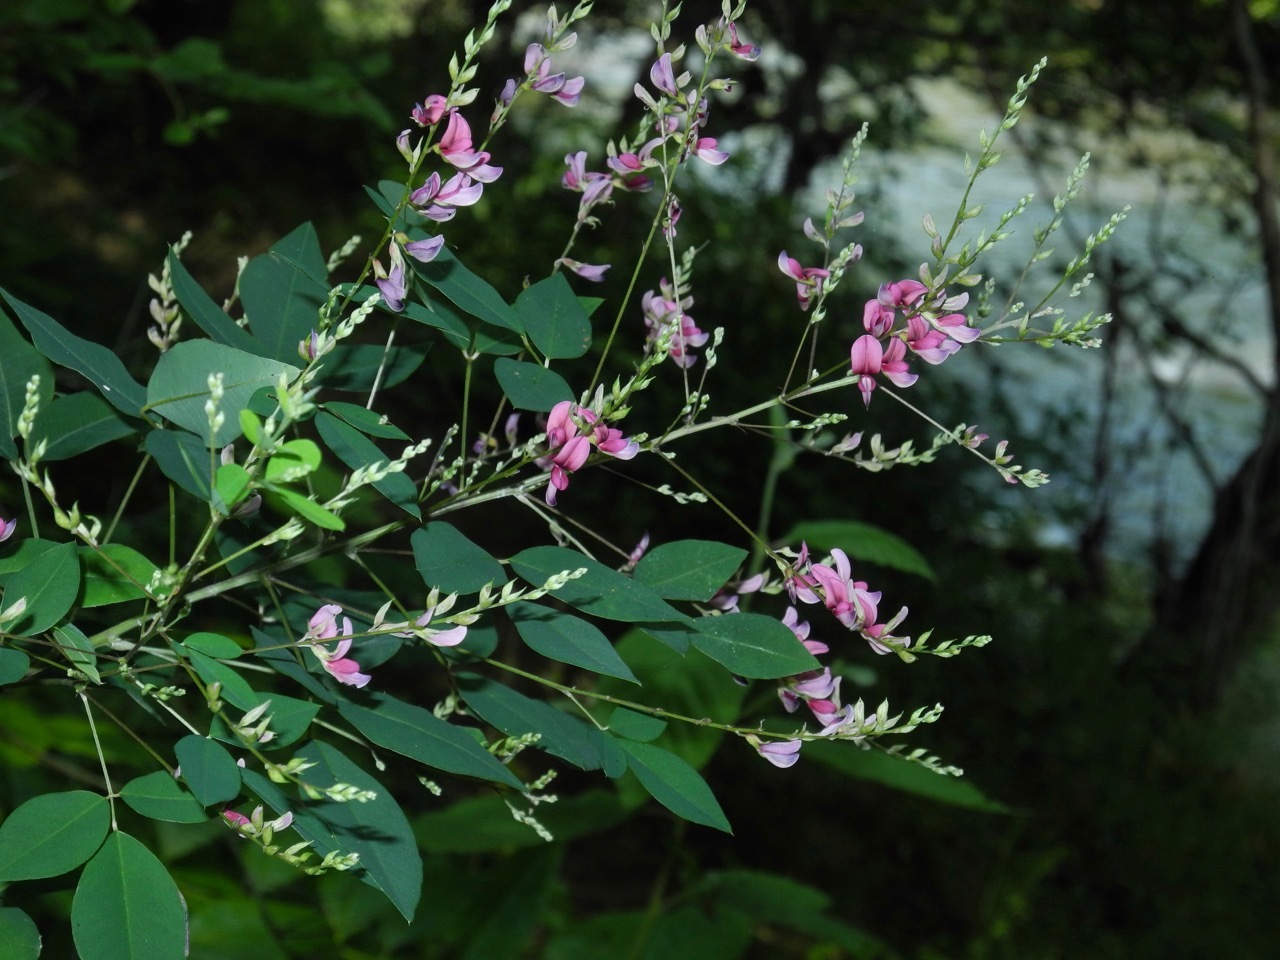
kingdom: Plantae
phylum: Tracheophyta
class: Magnoliopsida
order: Fabales
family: Fabaceae
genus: Lespedeza
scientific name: Lespedeza bicolor
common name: Shrub lespedeza
